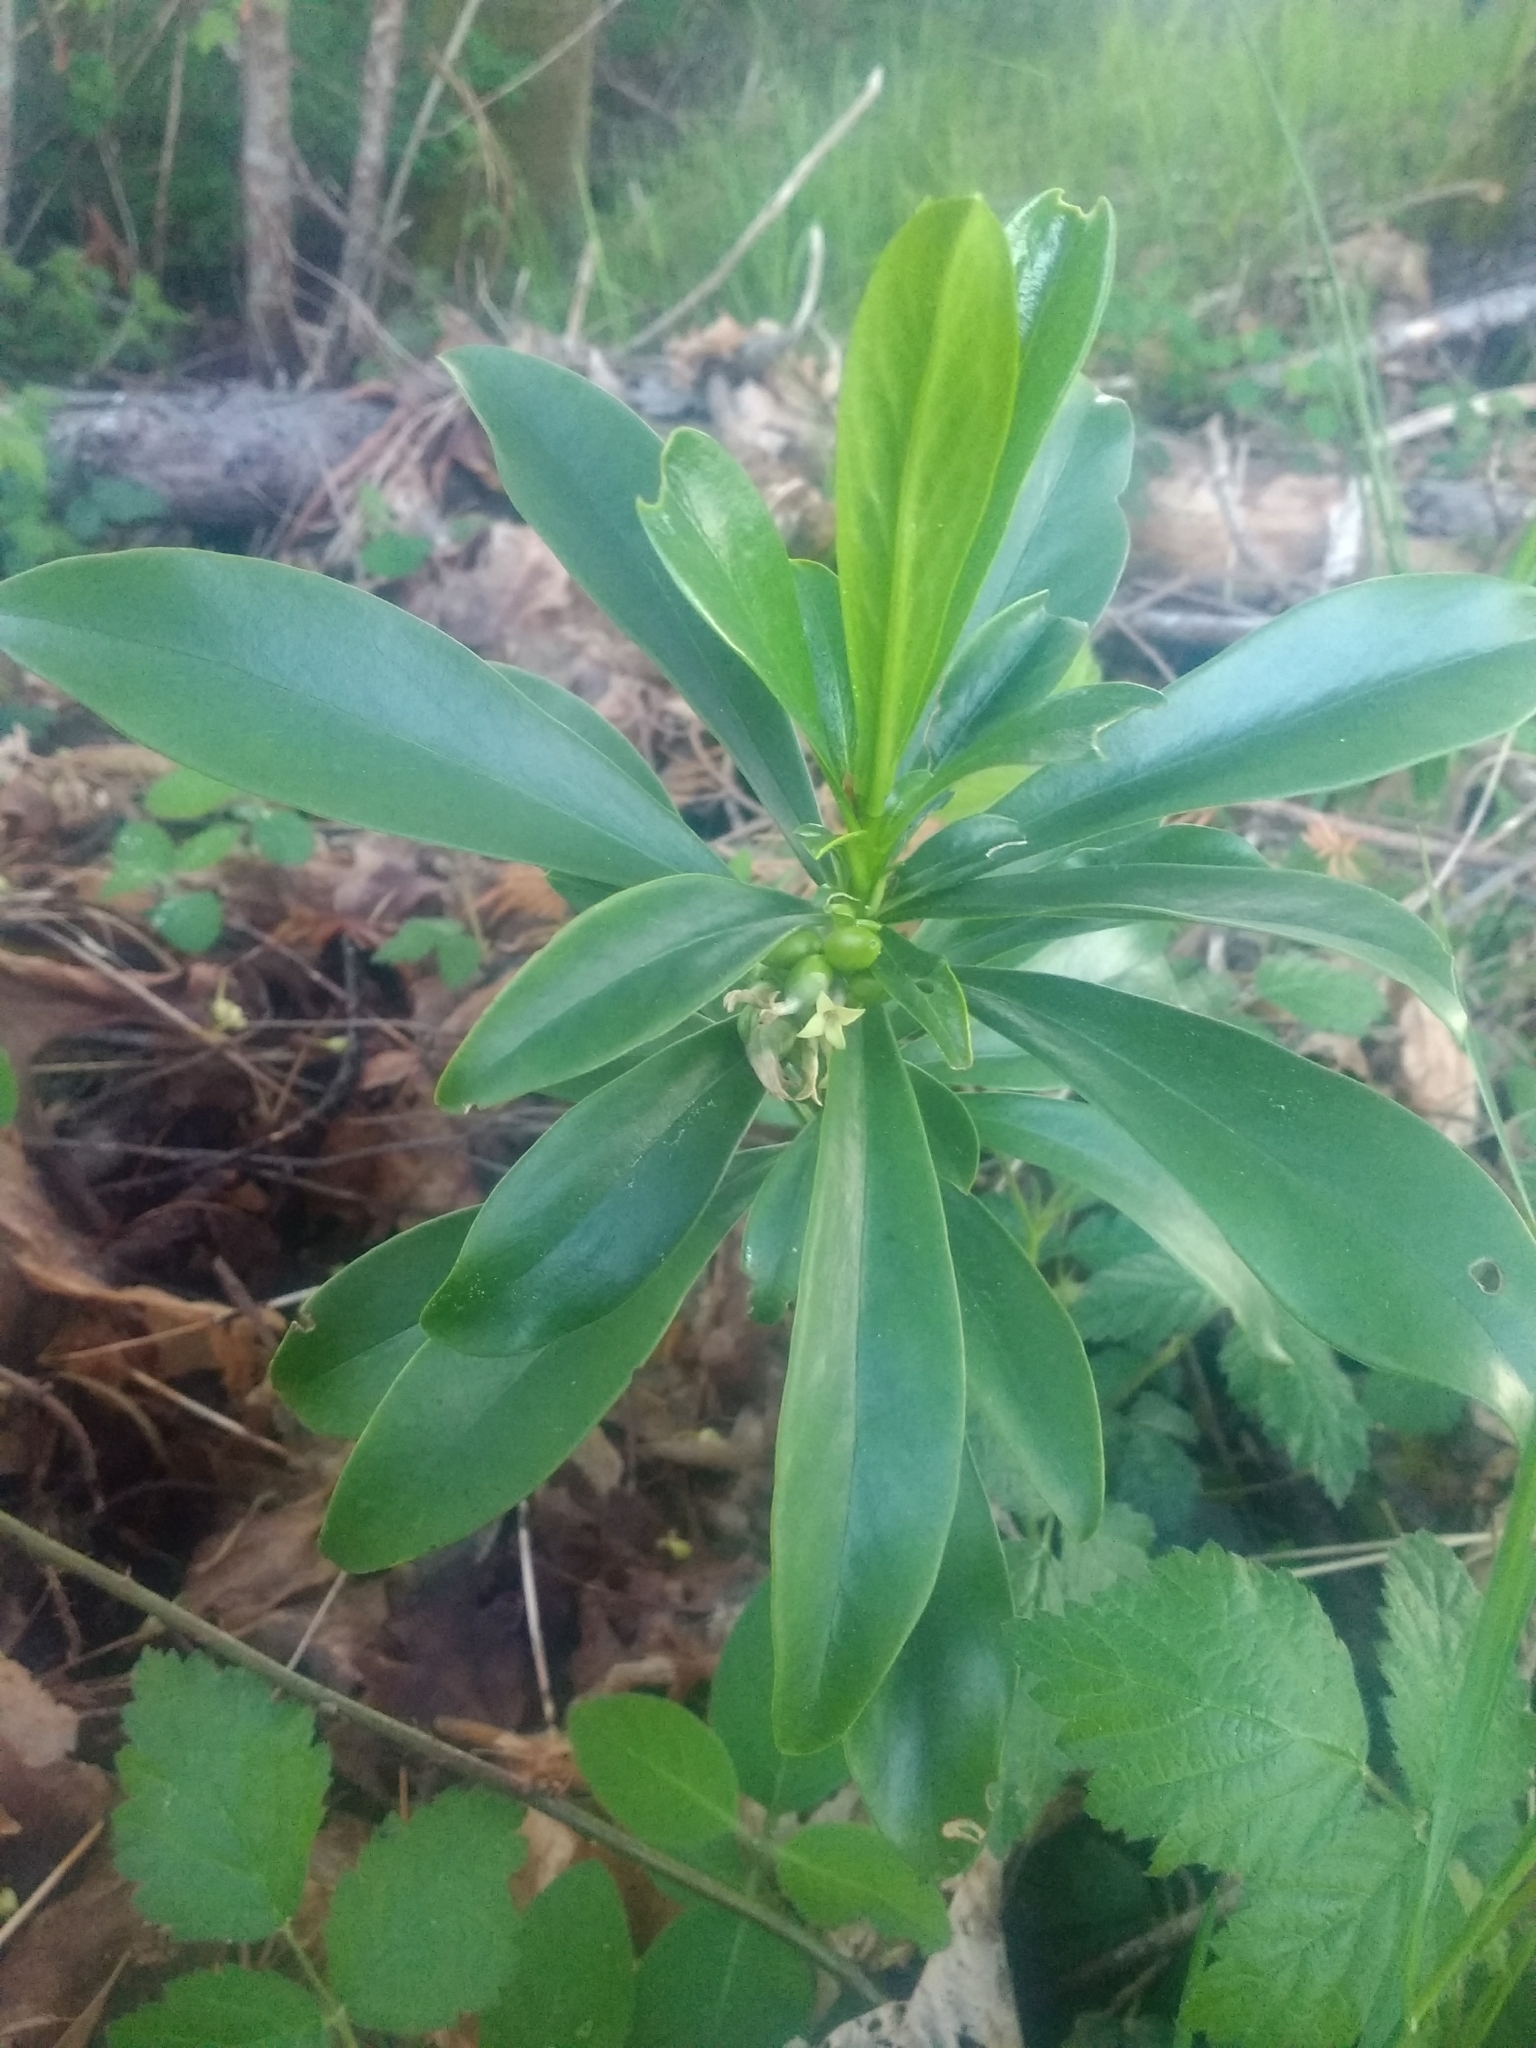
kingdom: Plantae
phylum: Tracheophyta
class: Magnoliopsida
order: Malvales
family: Thymelaeaceae
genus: Daphne
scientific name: Daphne laureola
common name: Spurge-laurel
